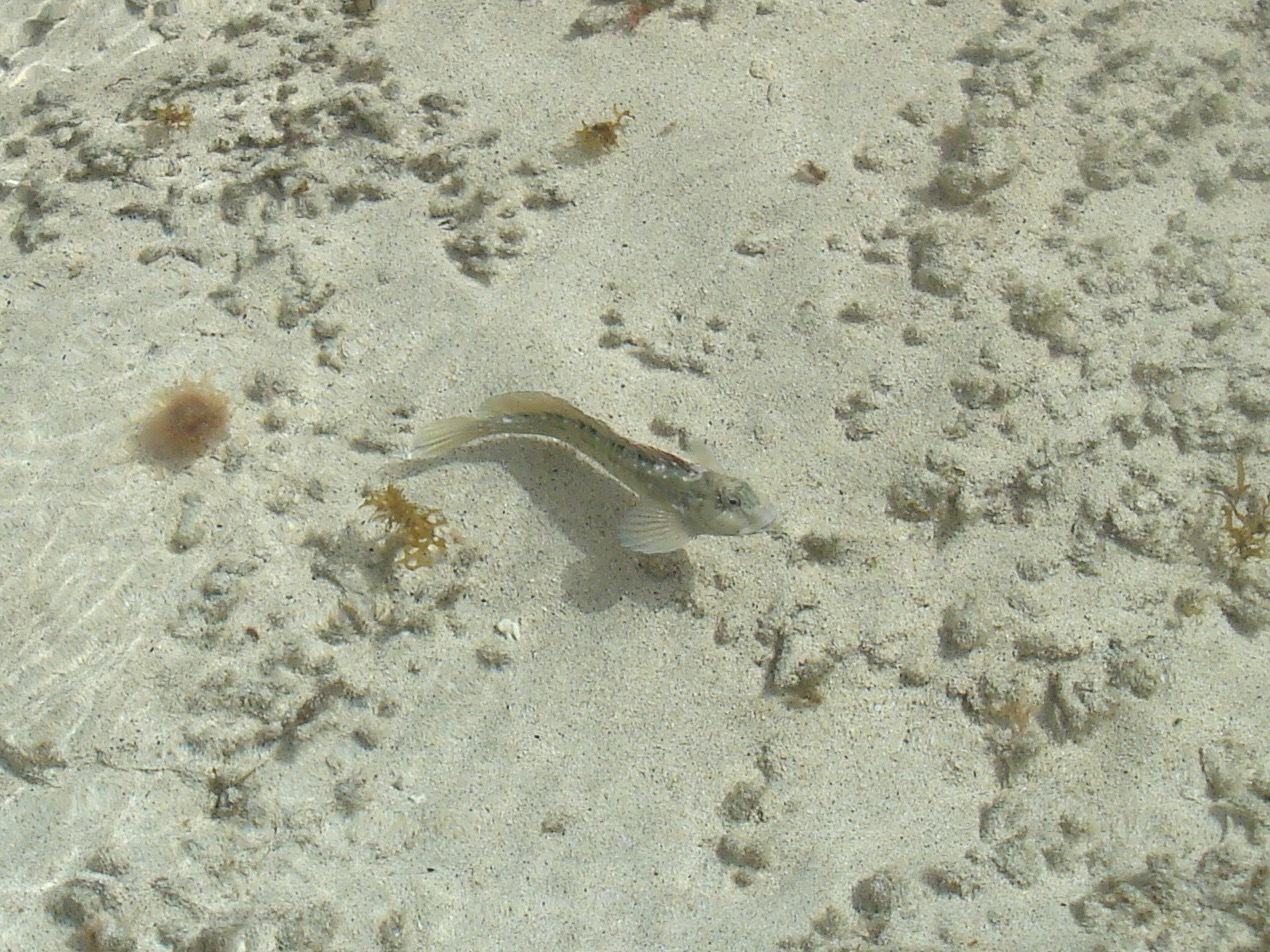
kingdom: Animalia
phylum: Chordata
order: Perciformes
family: Blenniidae
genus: Parablennius
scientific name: Parablennius parvicornis
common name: Rock-pool blenny
